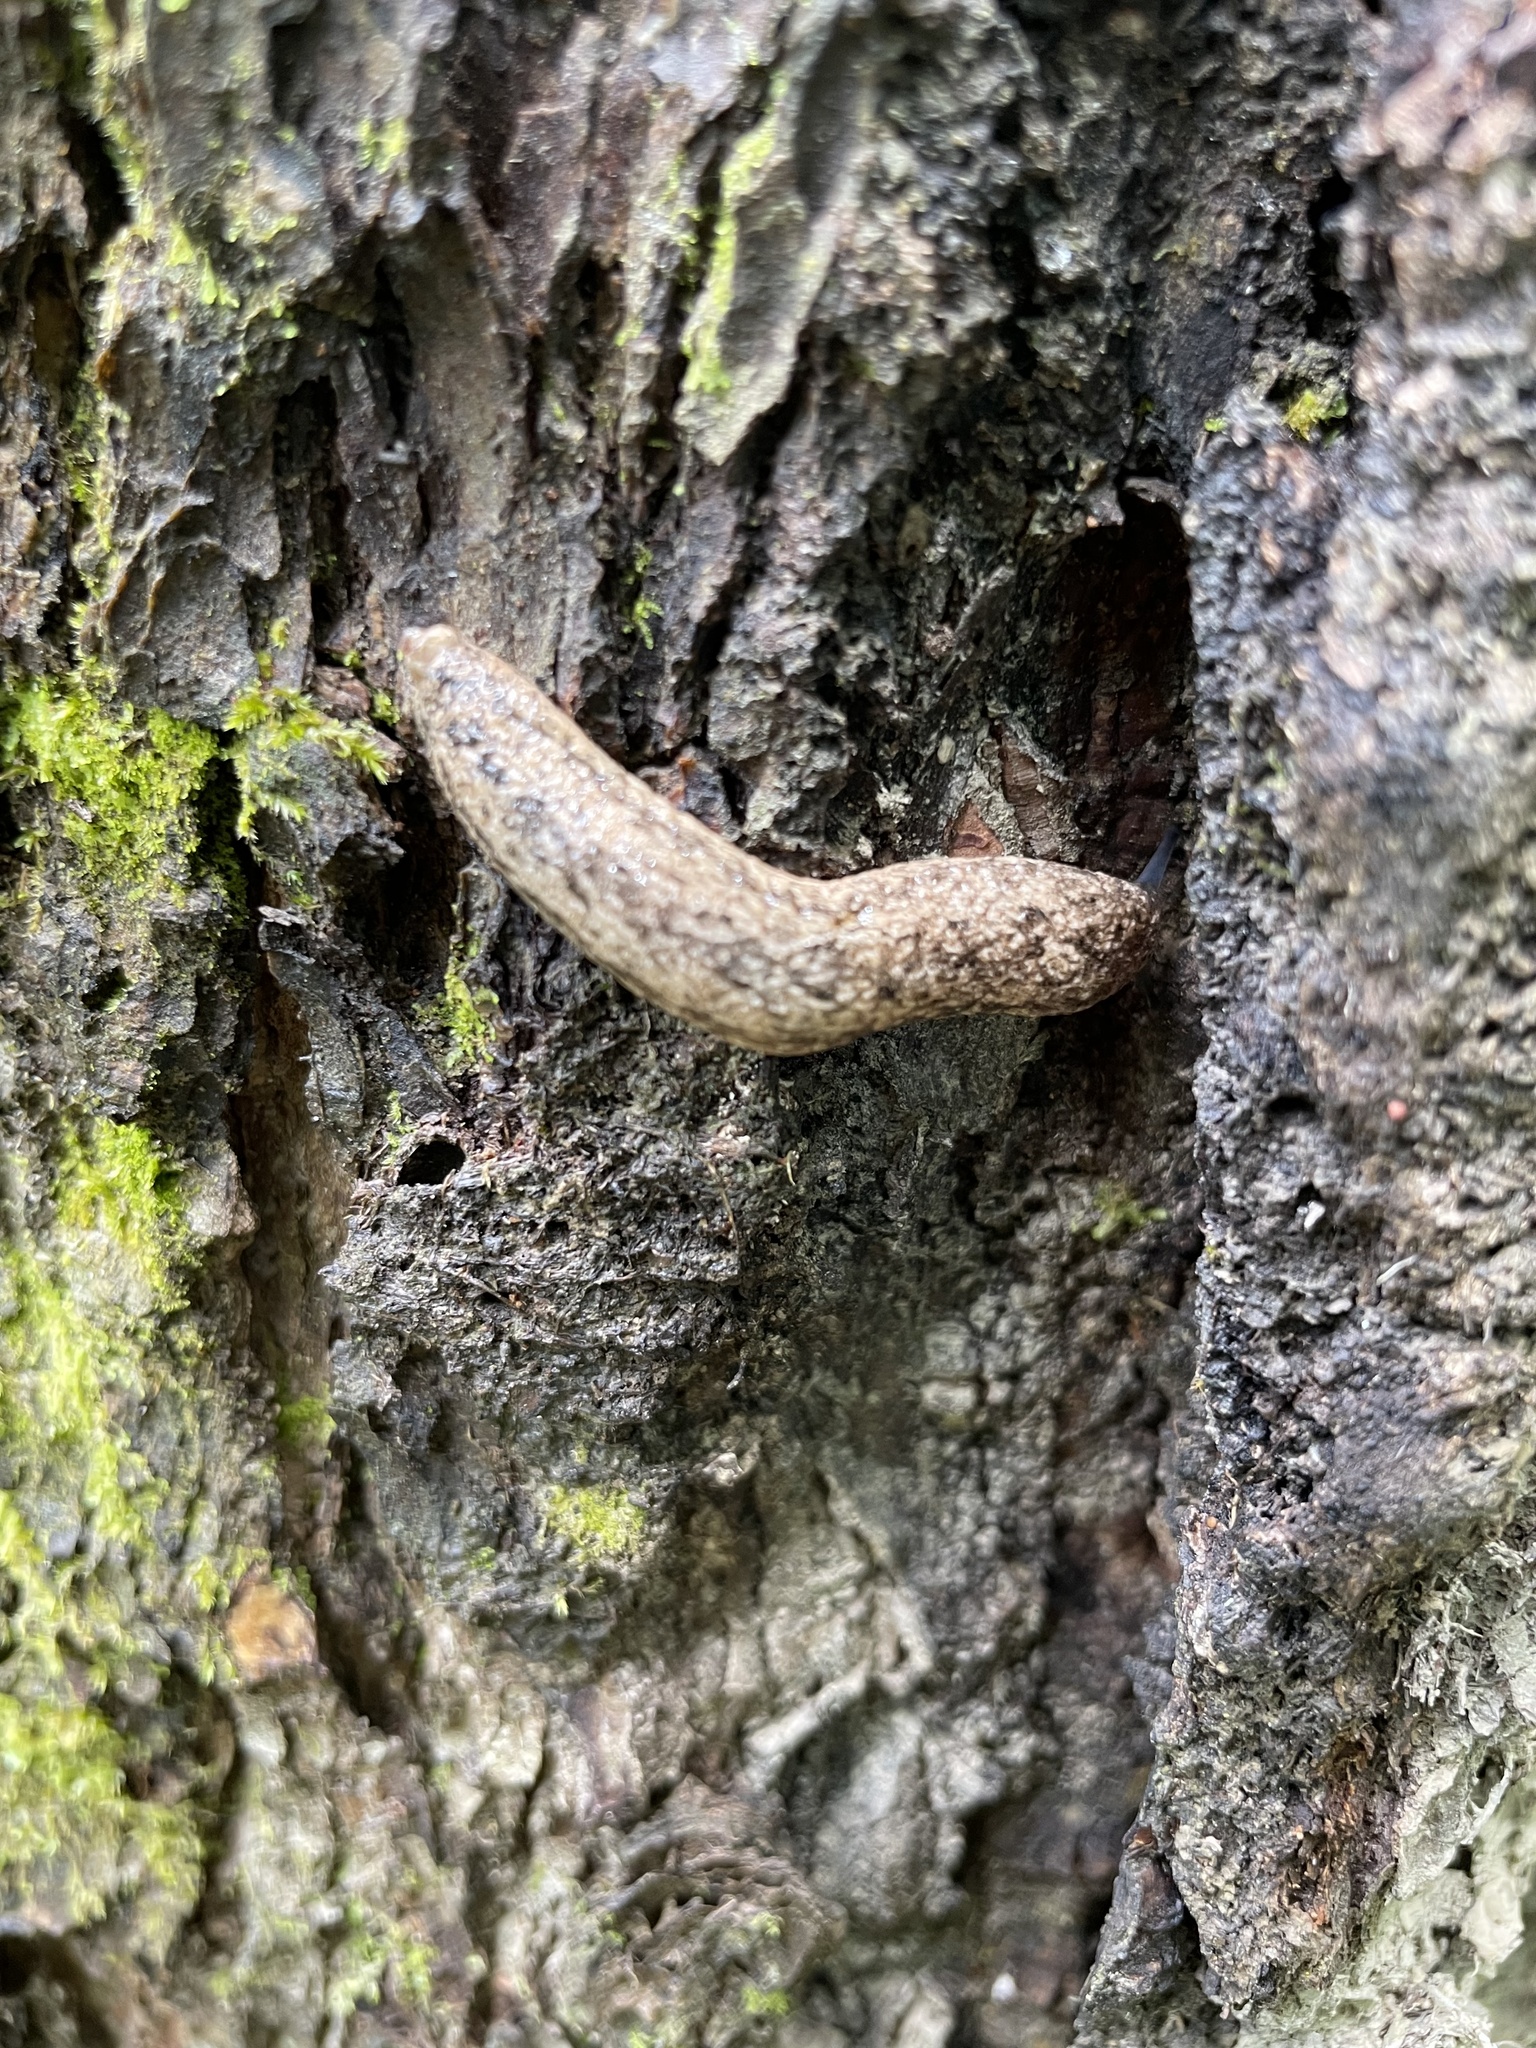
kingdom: Animalia
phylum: Mollusca
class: Gastropoda
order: Stylommatophora
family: Philomycidae
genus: Philomycus
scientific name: Philomycus carolinianus
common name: Carolina mantleslug
